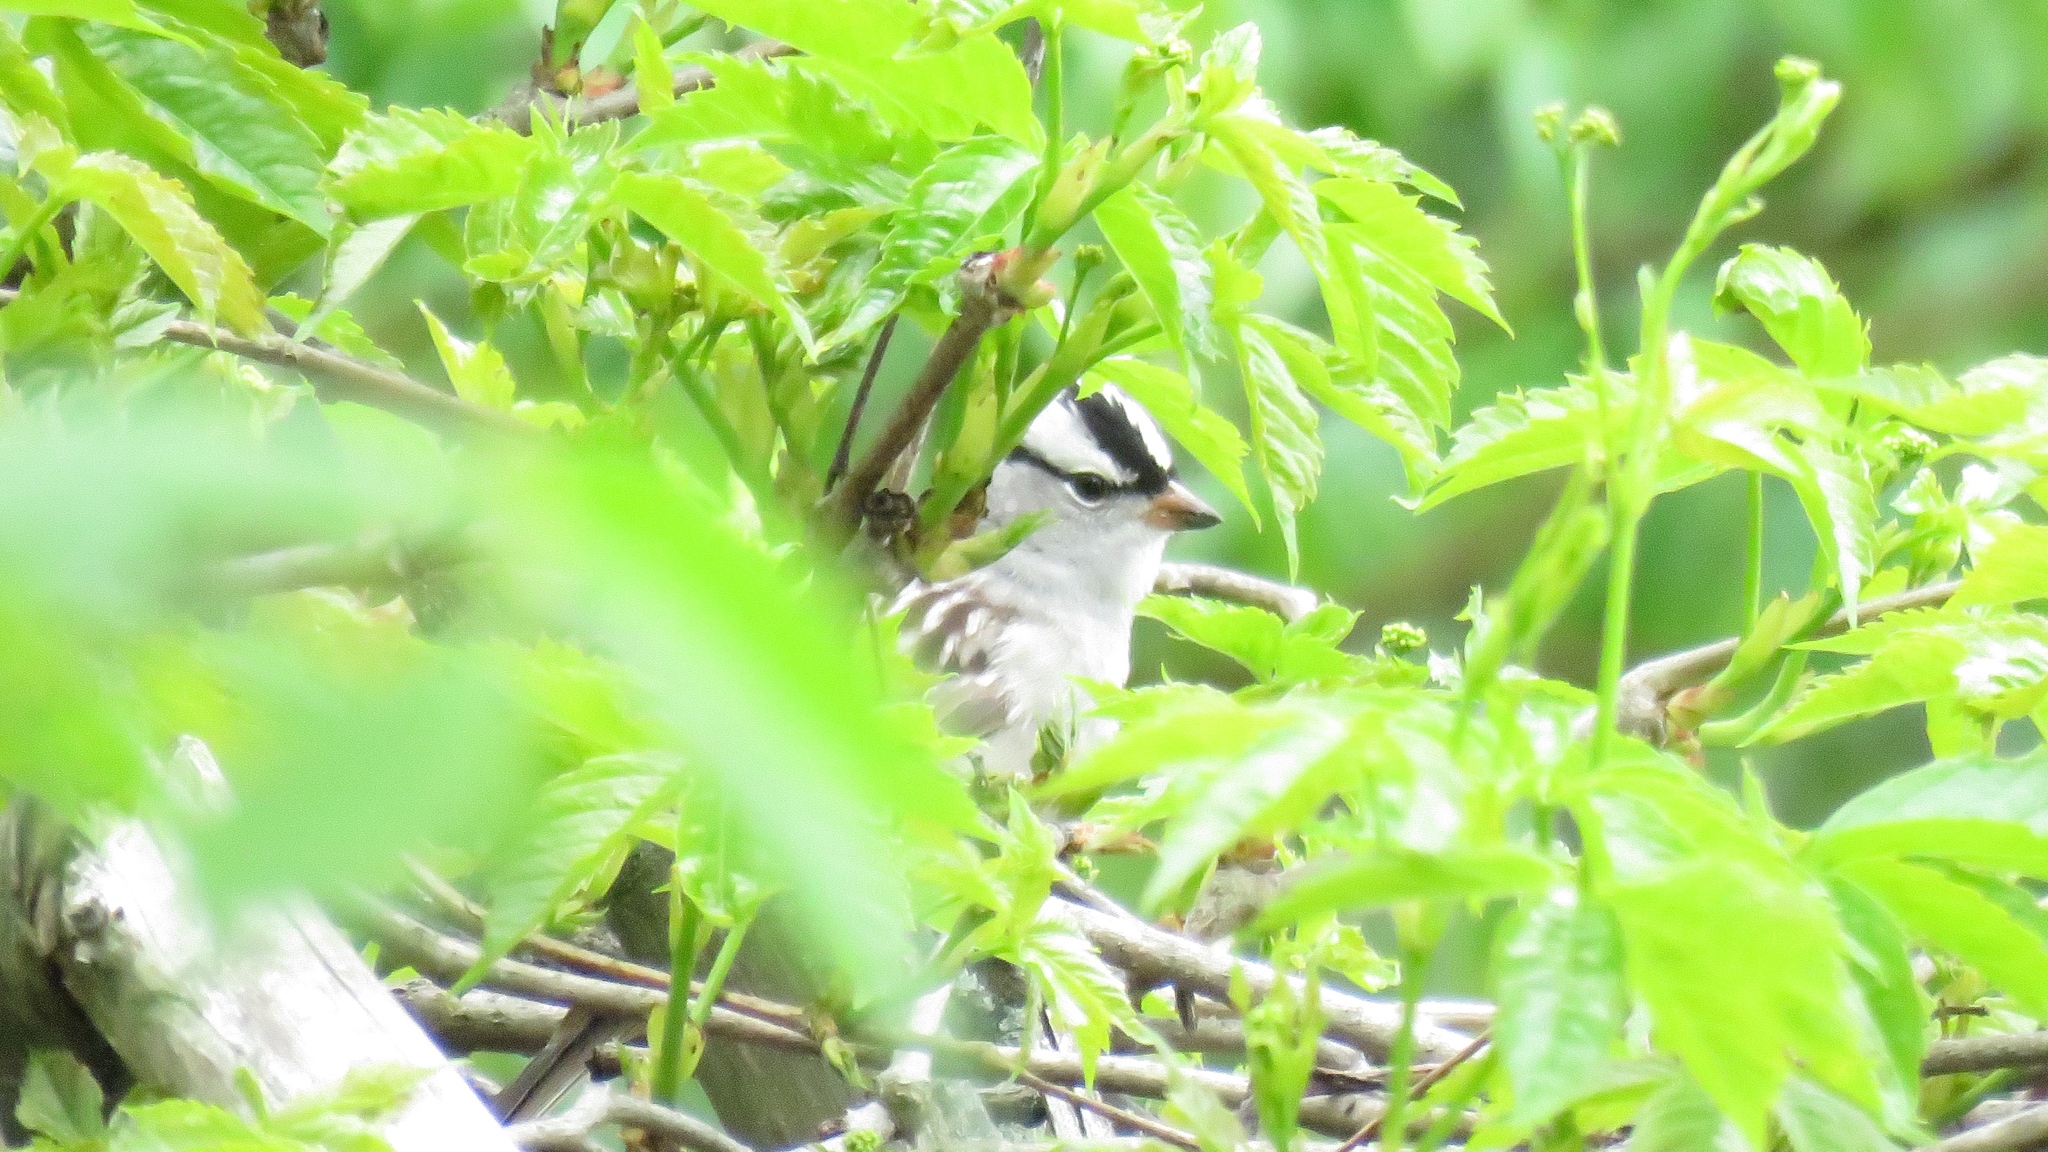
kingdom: Animalia
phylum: Chordata
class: Aves
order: Passeriformes
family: Passerellidae
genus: Zonotrichia
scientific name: Zonotrichia leucophrys
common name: White-crowned sparrow
